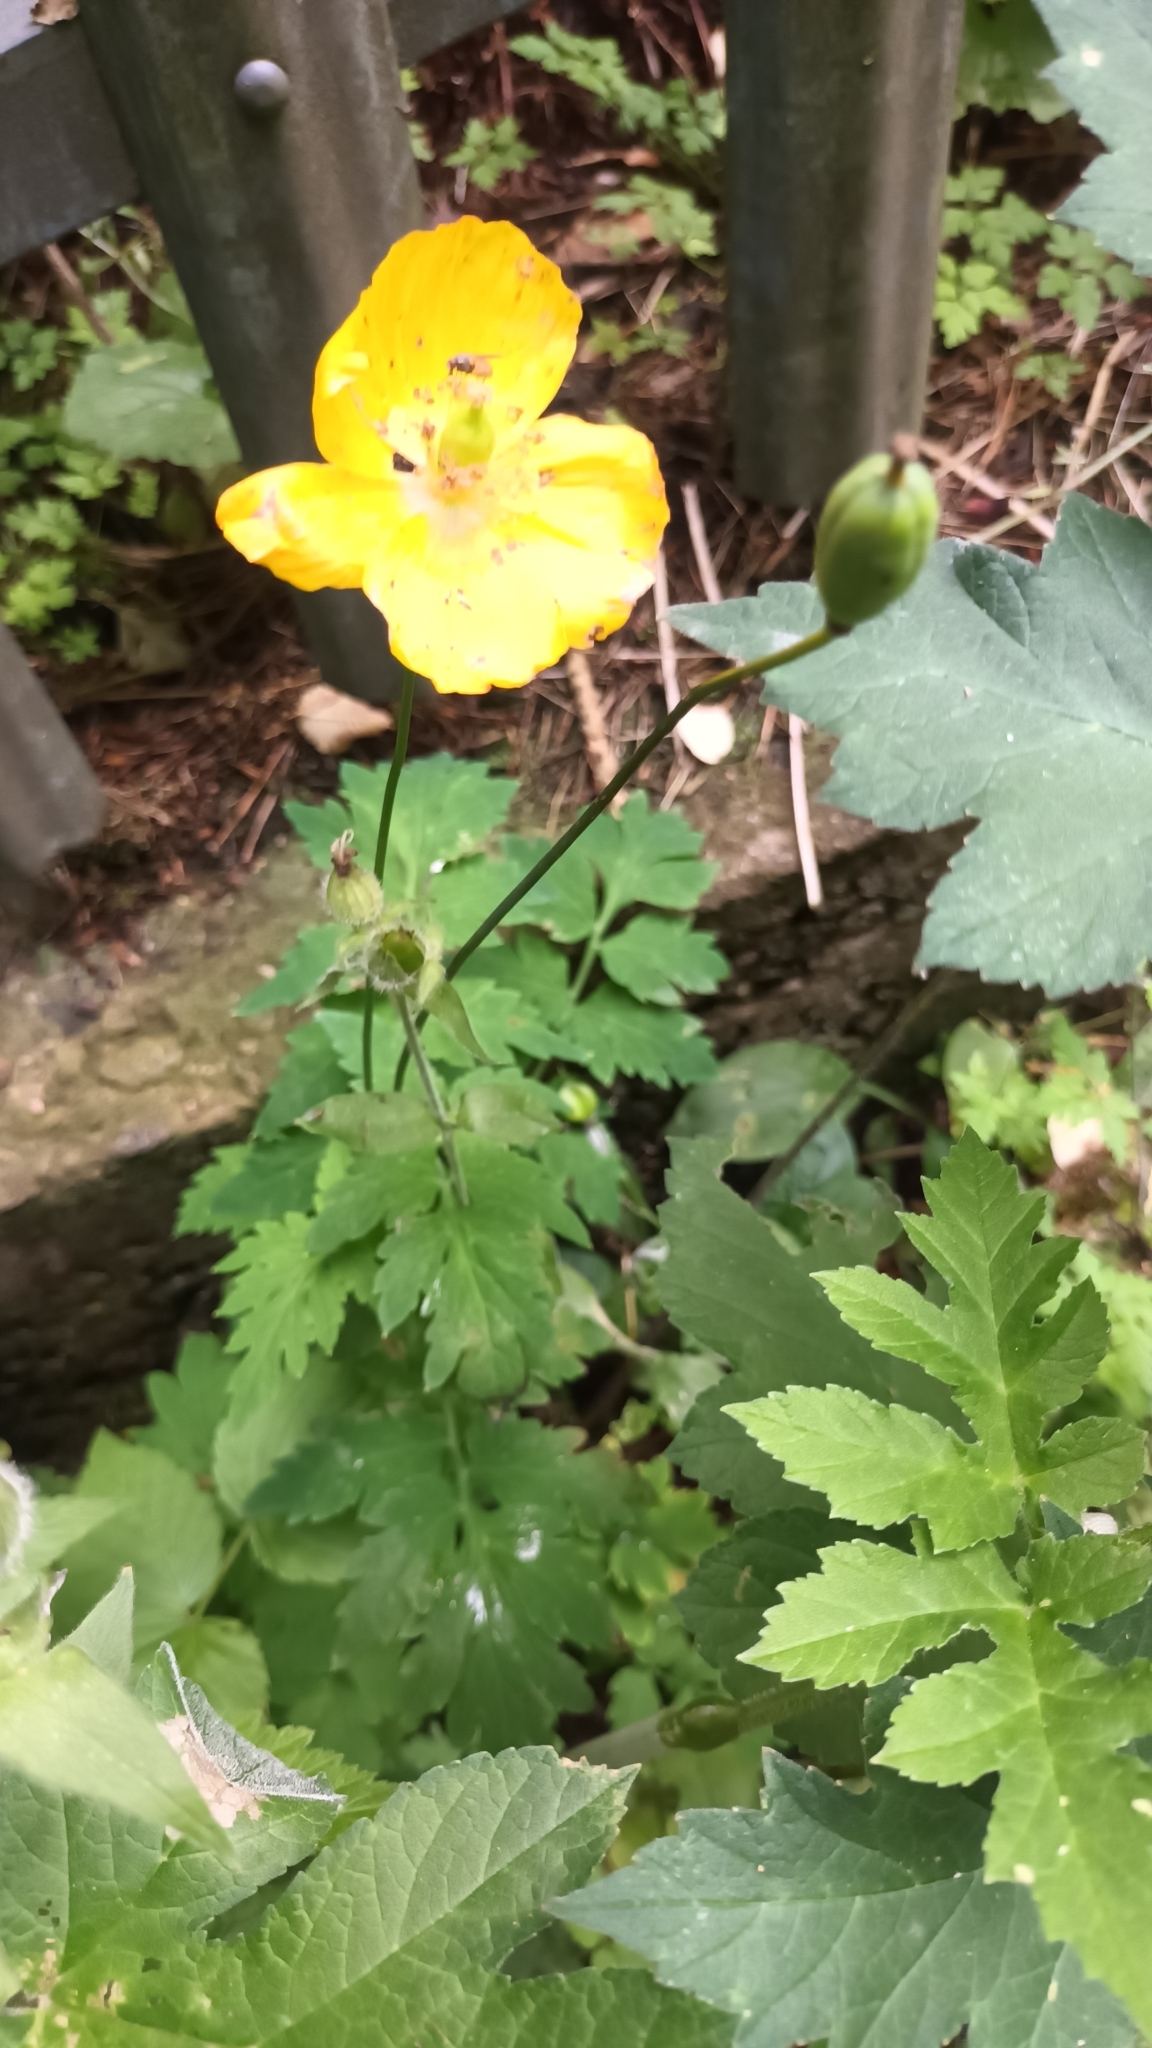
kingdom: Plantae
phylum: Tracheophyta
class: Magnoliopsida
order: Ranunculales
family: Papaveraceae
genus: Papaver
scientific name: Papaver cambricum
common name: Poppy
